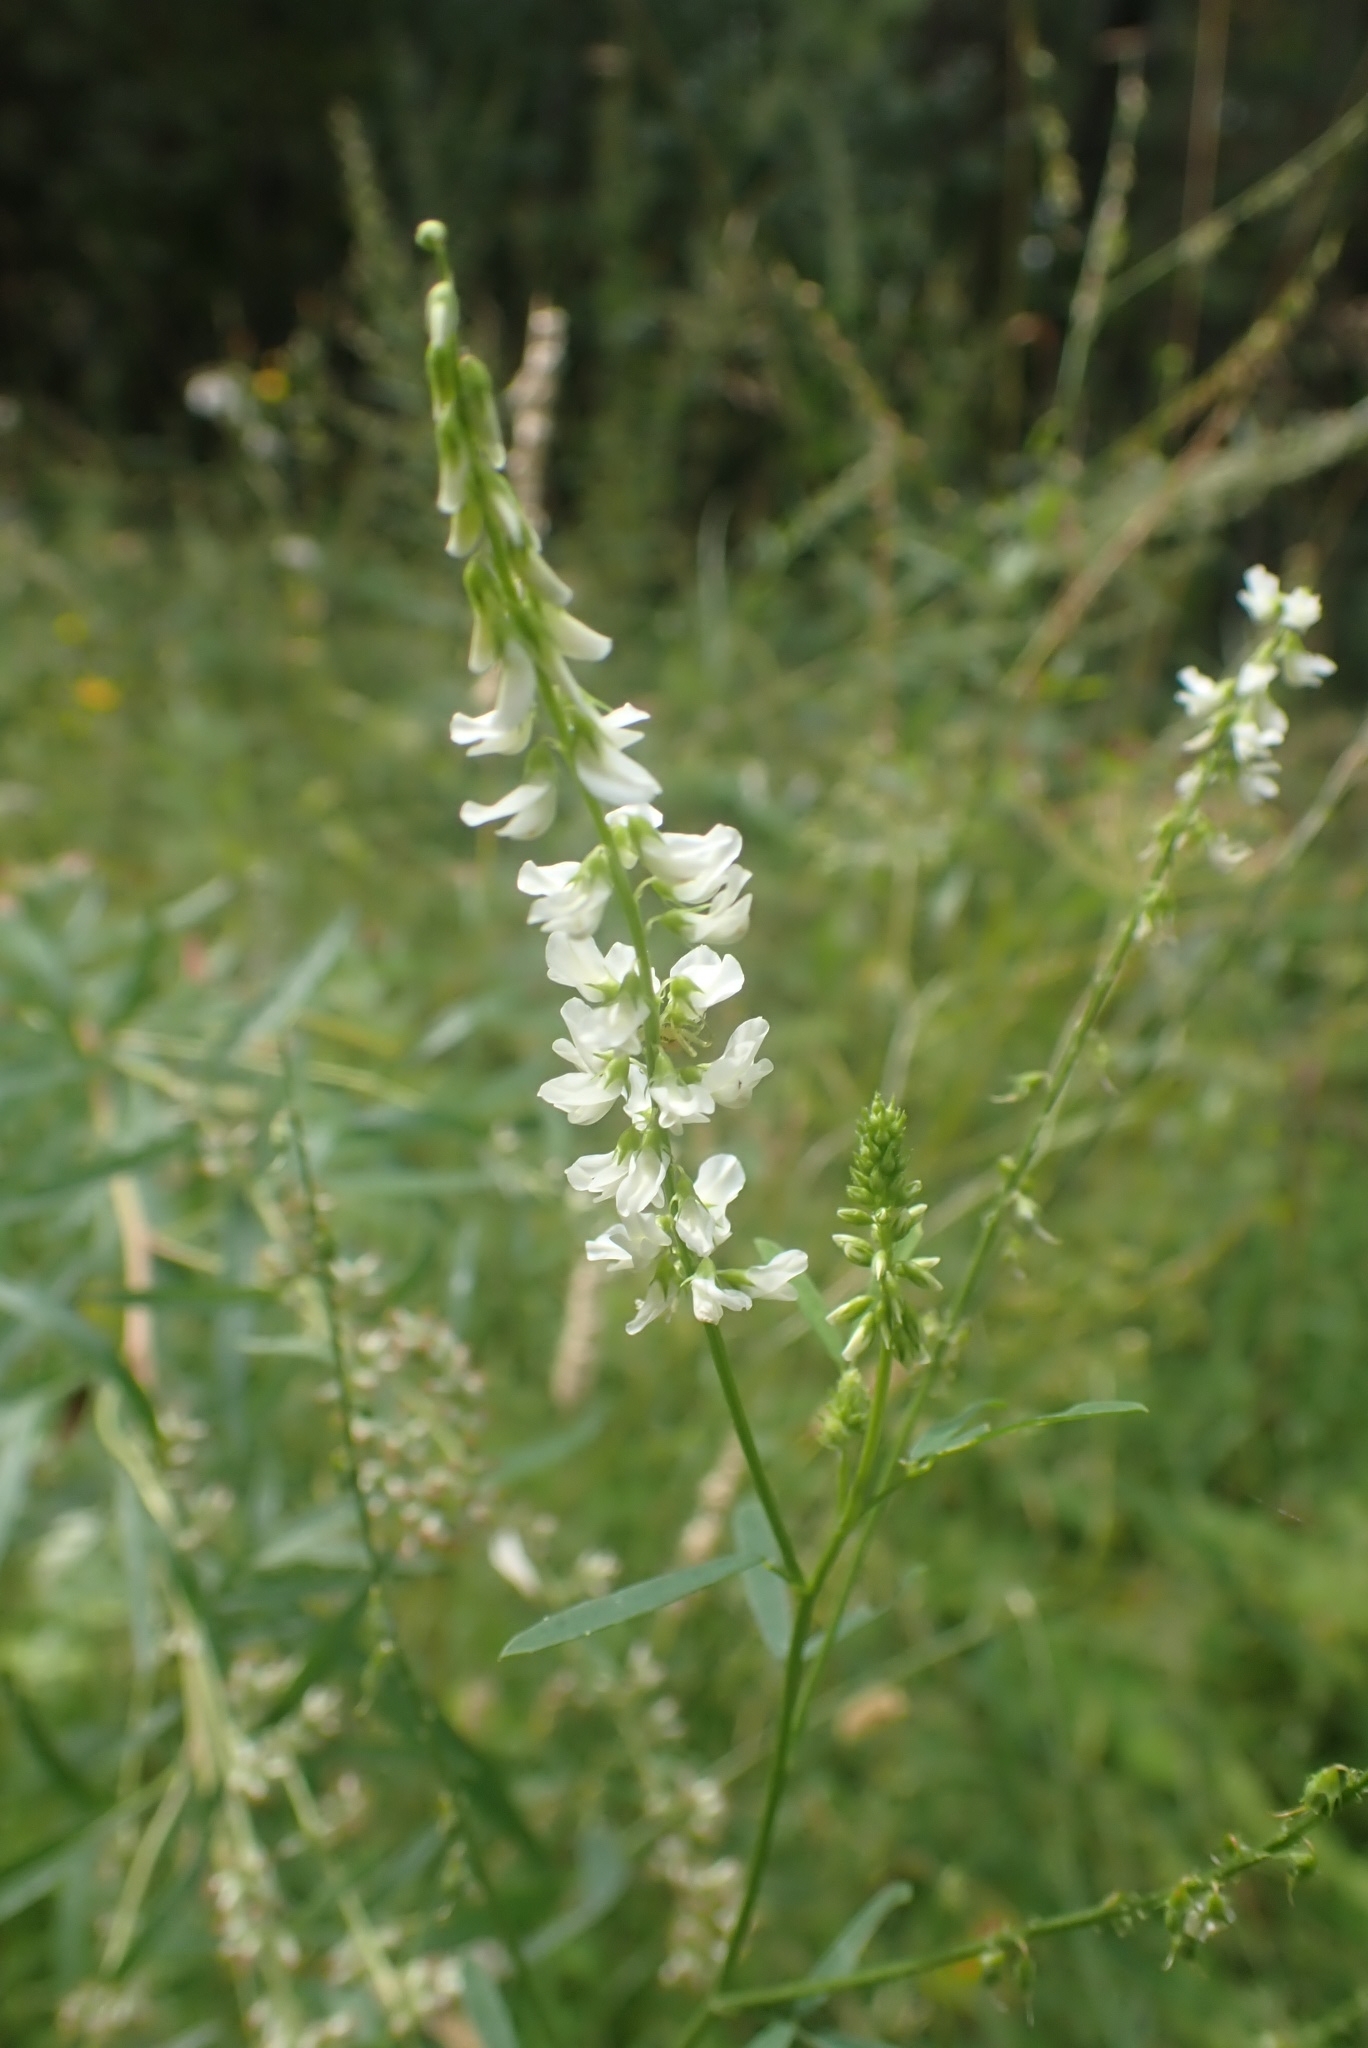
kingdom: Plantae
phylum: Tracheophyta
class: Magnoliopsida
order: Fabales
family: Fabaceae
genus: Melilotus
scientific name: Melilotus albus
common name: White melilot
